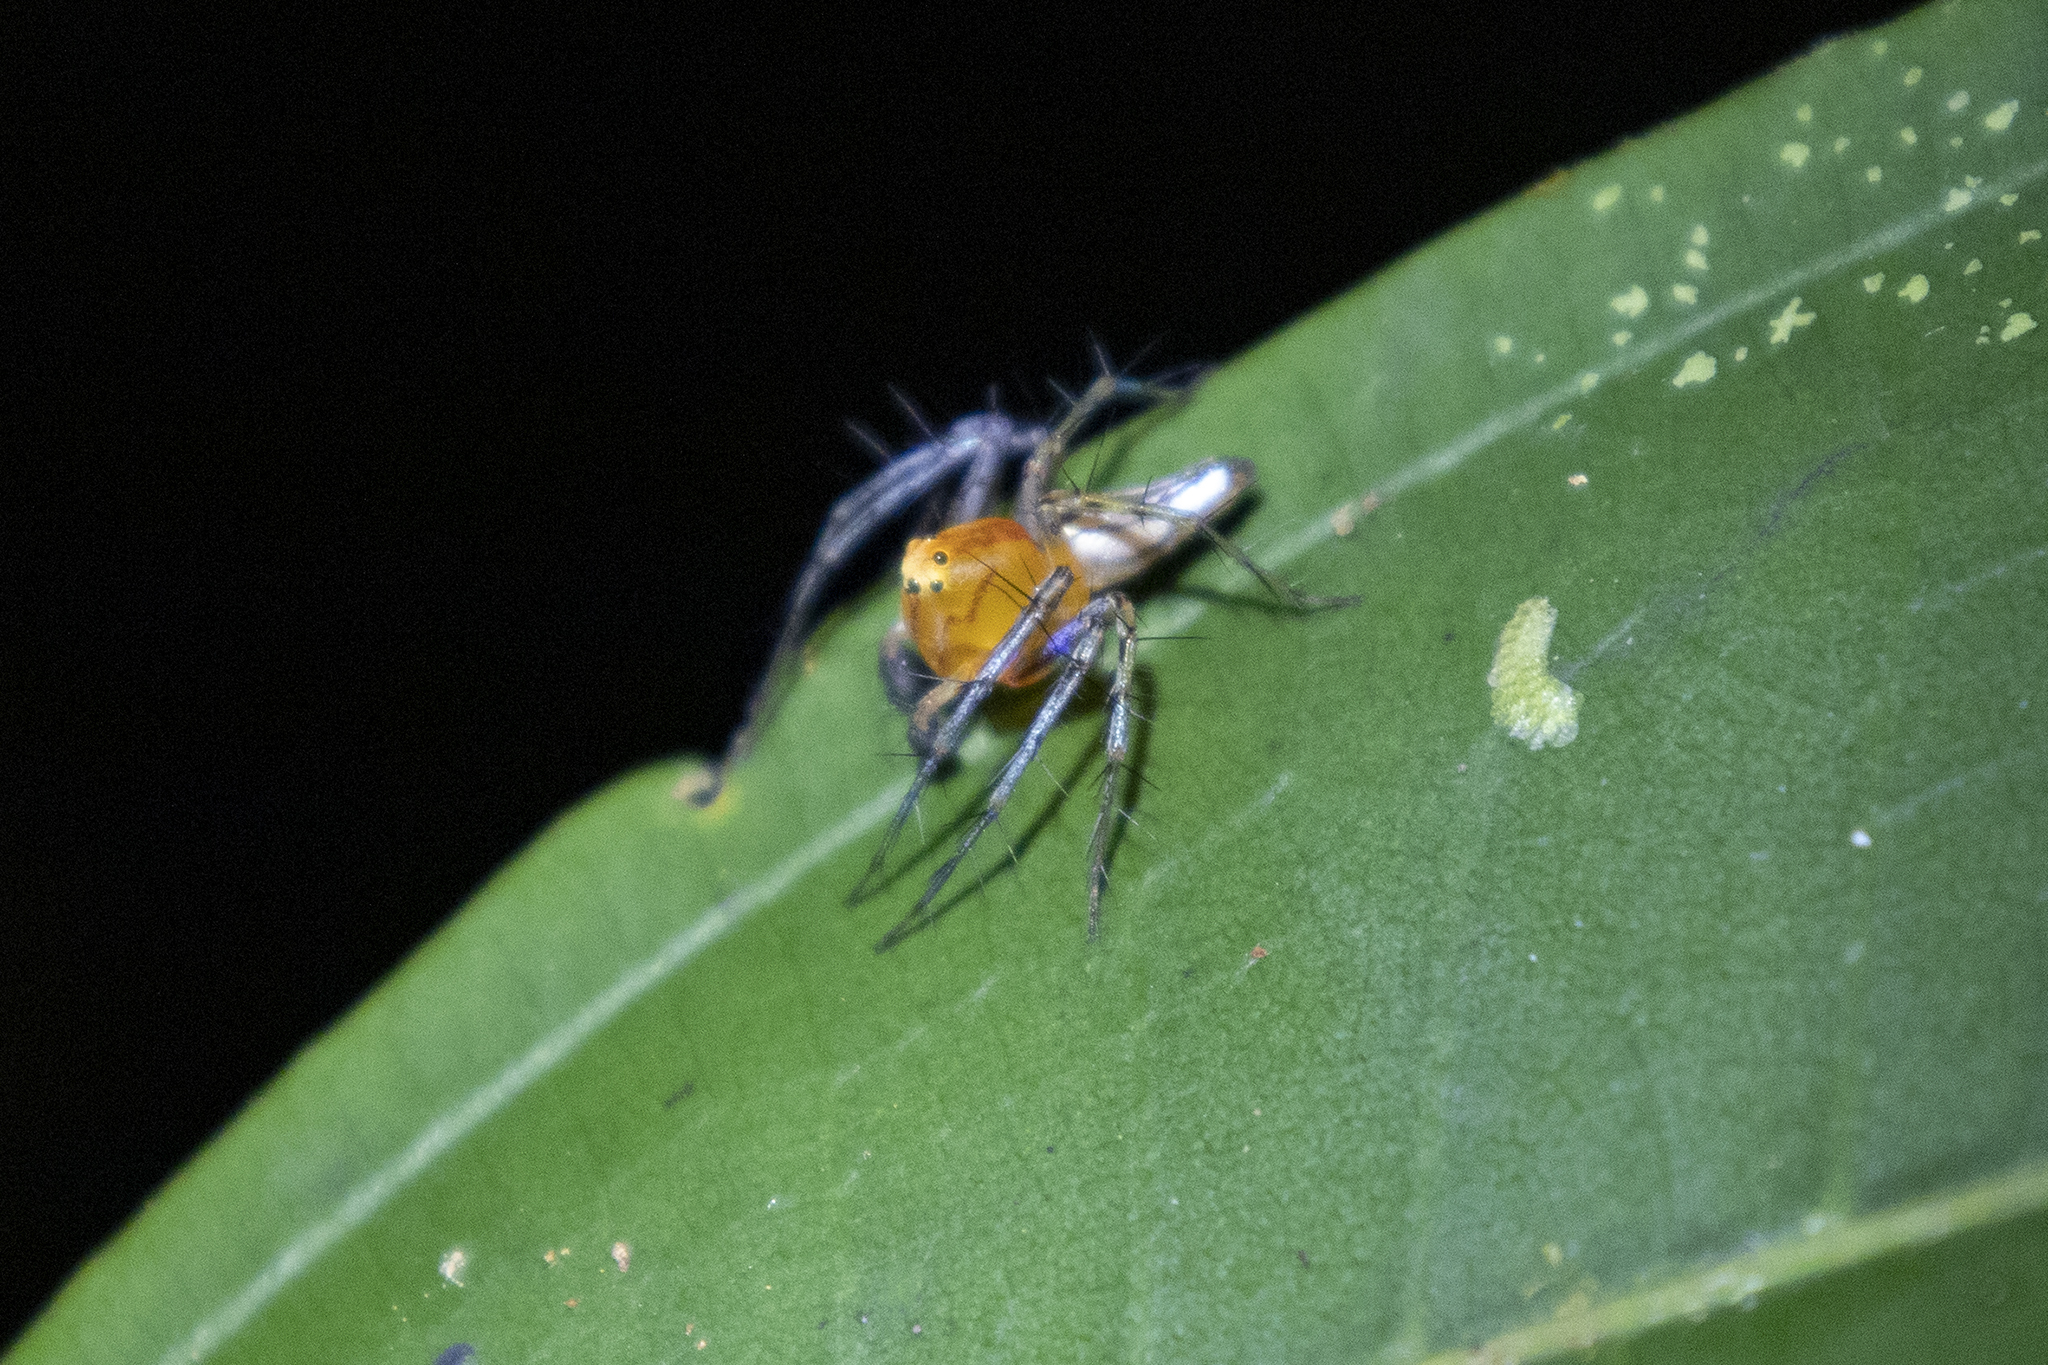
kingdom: Animalia
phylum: Arthropoda
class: Arachnida
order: Araneae
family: Oxyopidae
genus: Oxyopes
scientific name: Oxyopes incertus
